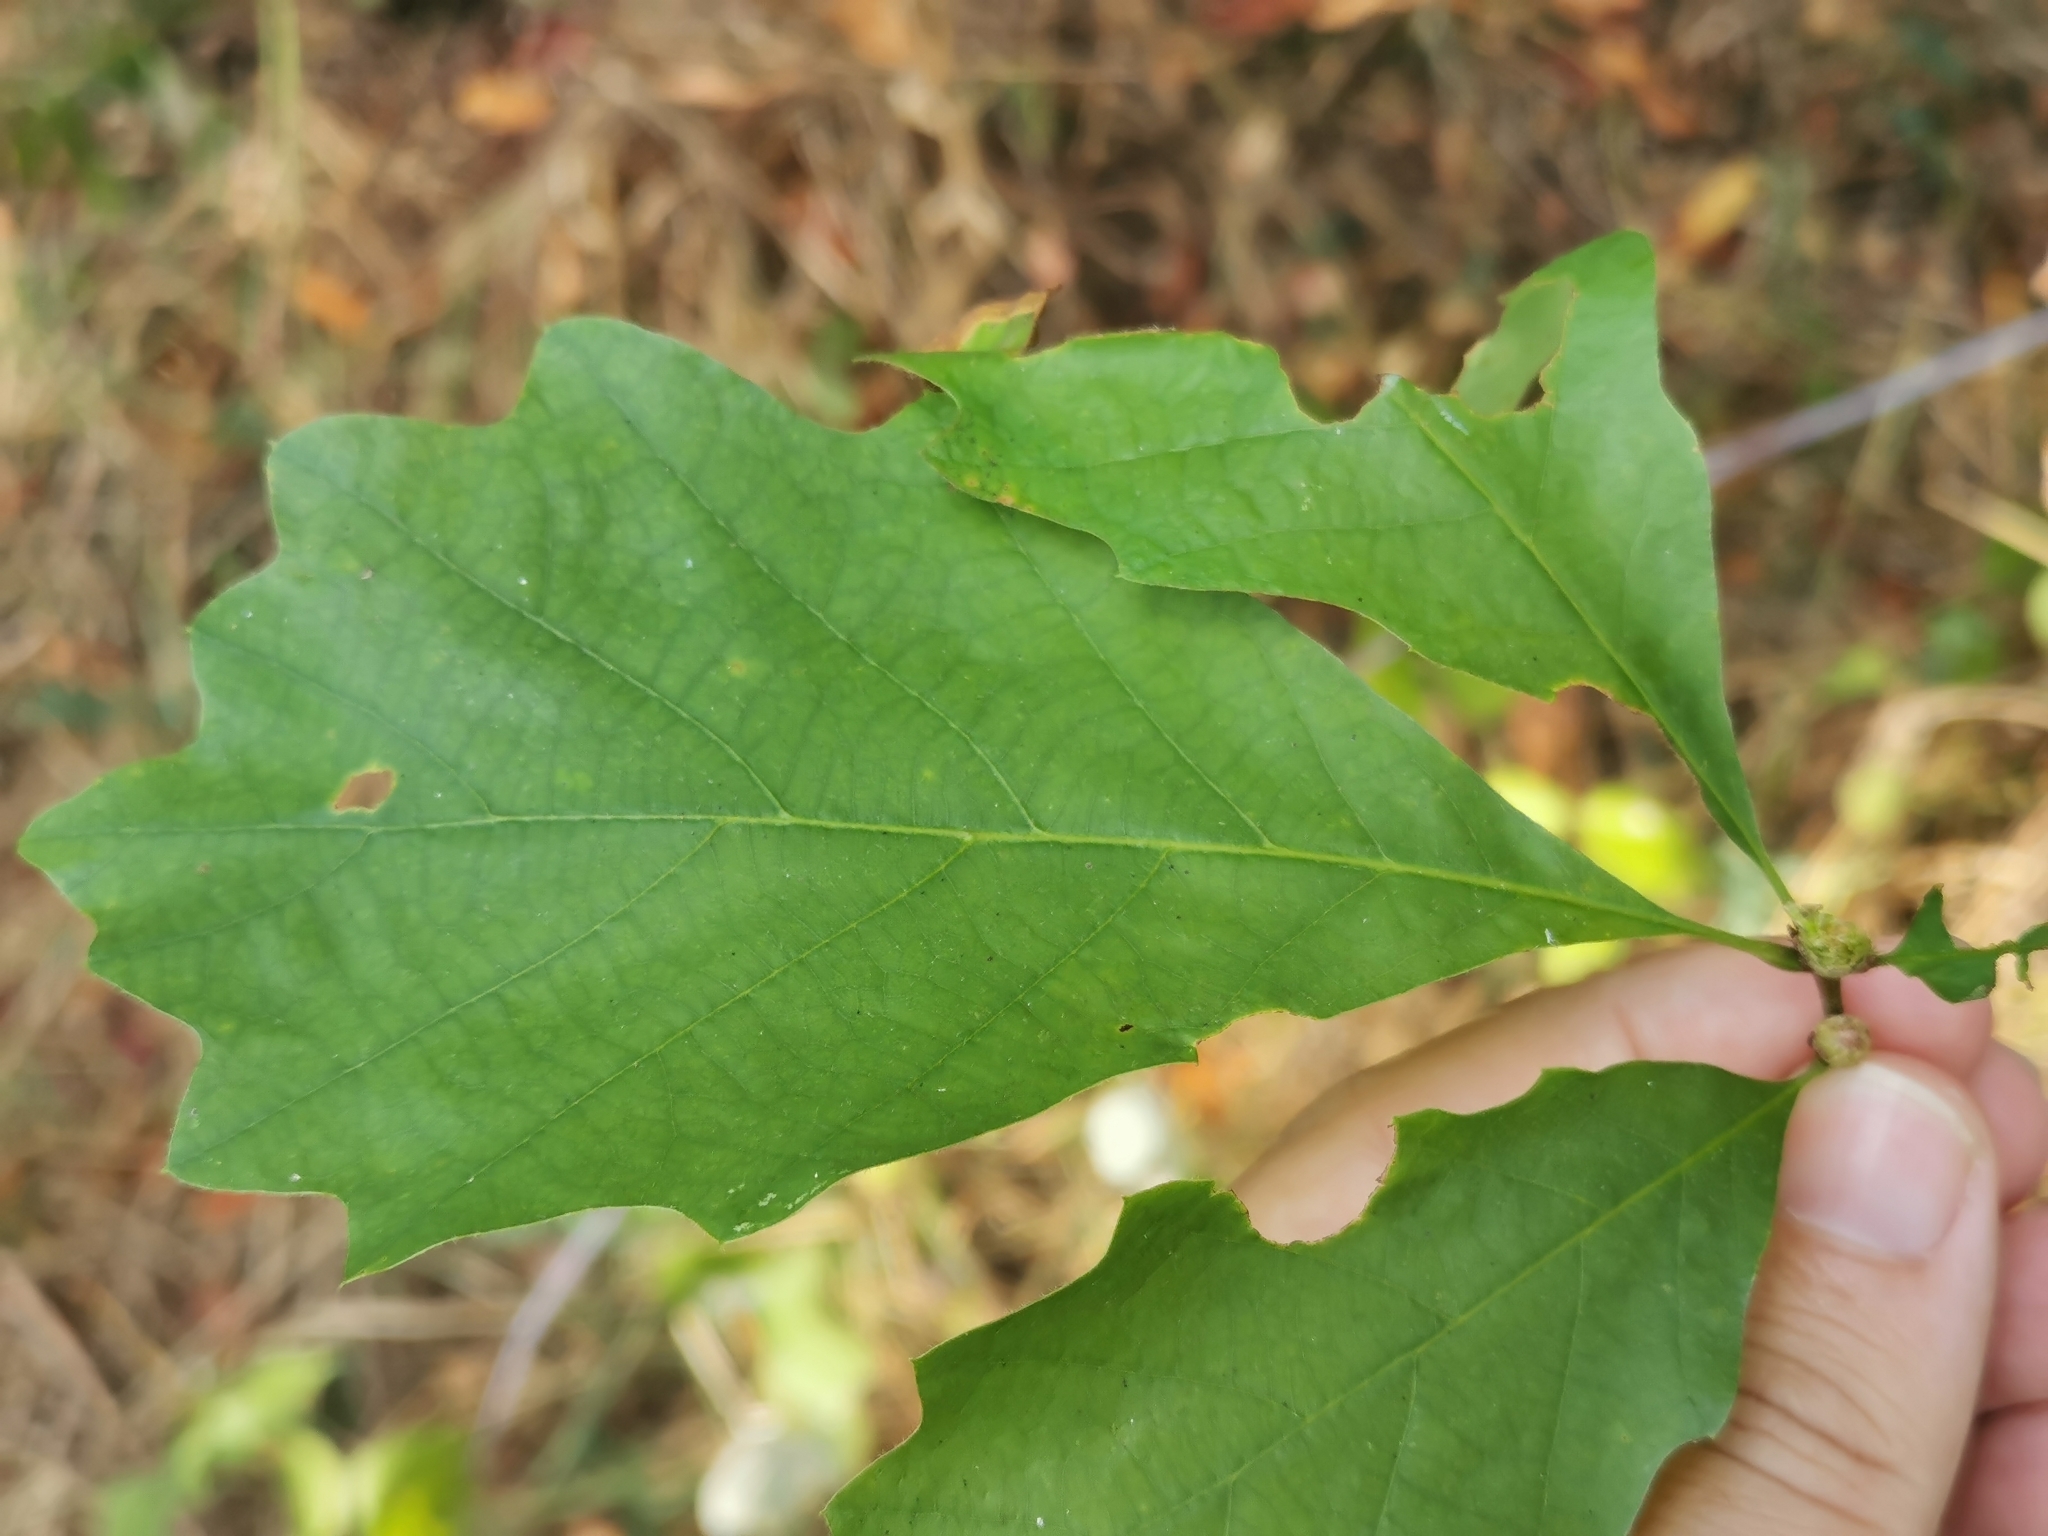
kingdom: Animalia
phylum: Arthropoda
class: Insecta
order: Hymenoptera
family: Cynipidae
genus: Andricus
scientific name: Andricus
